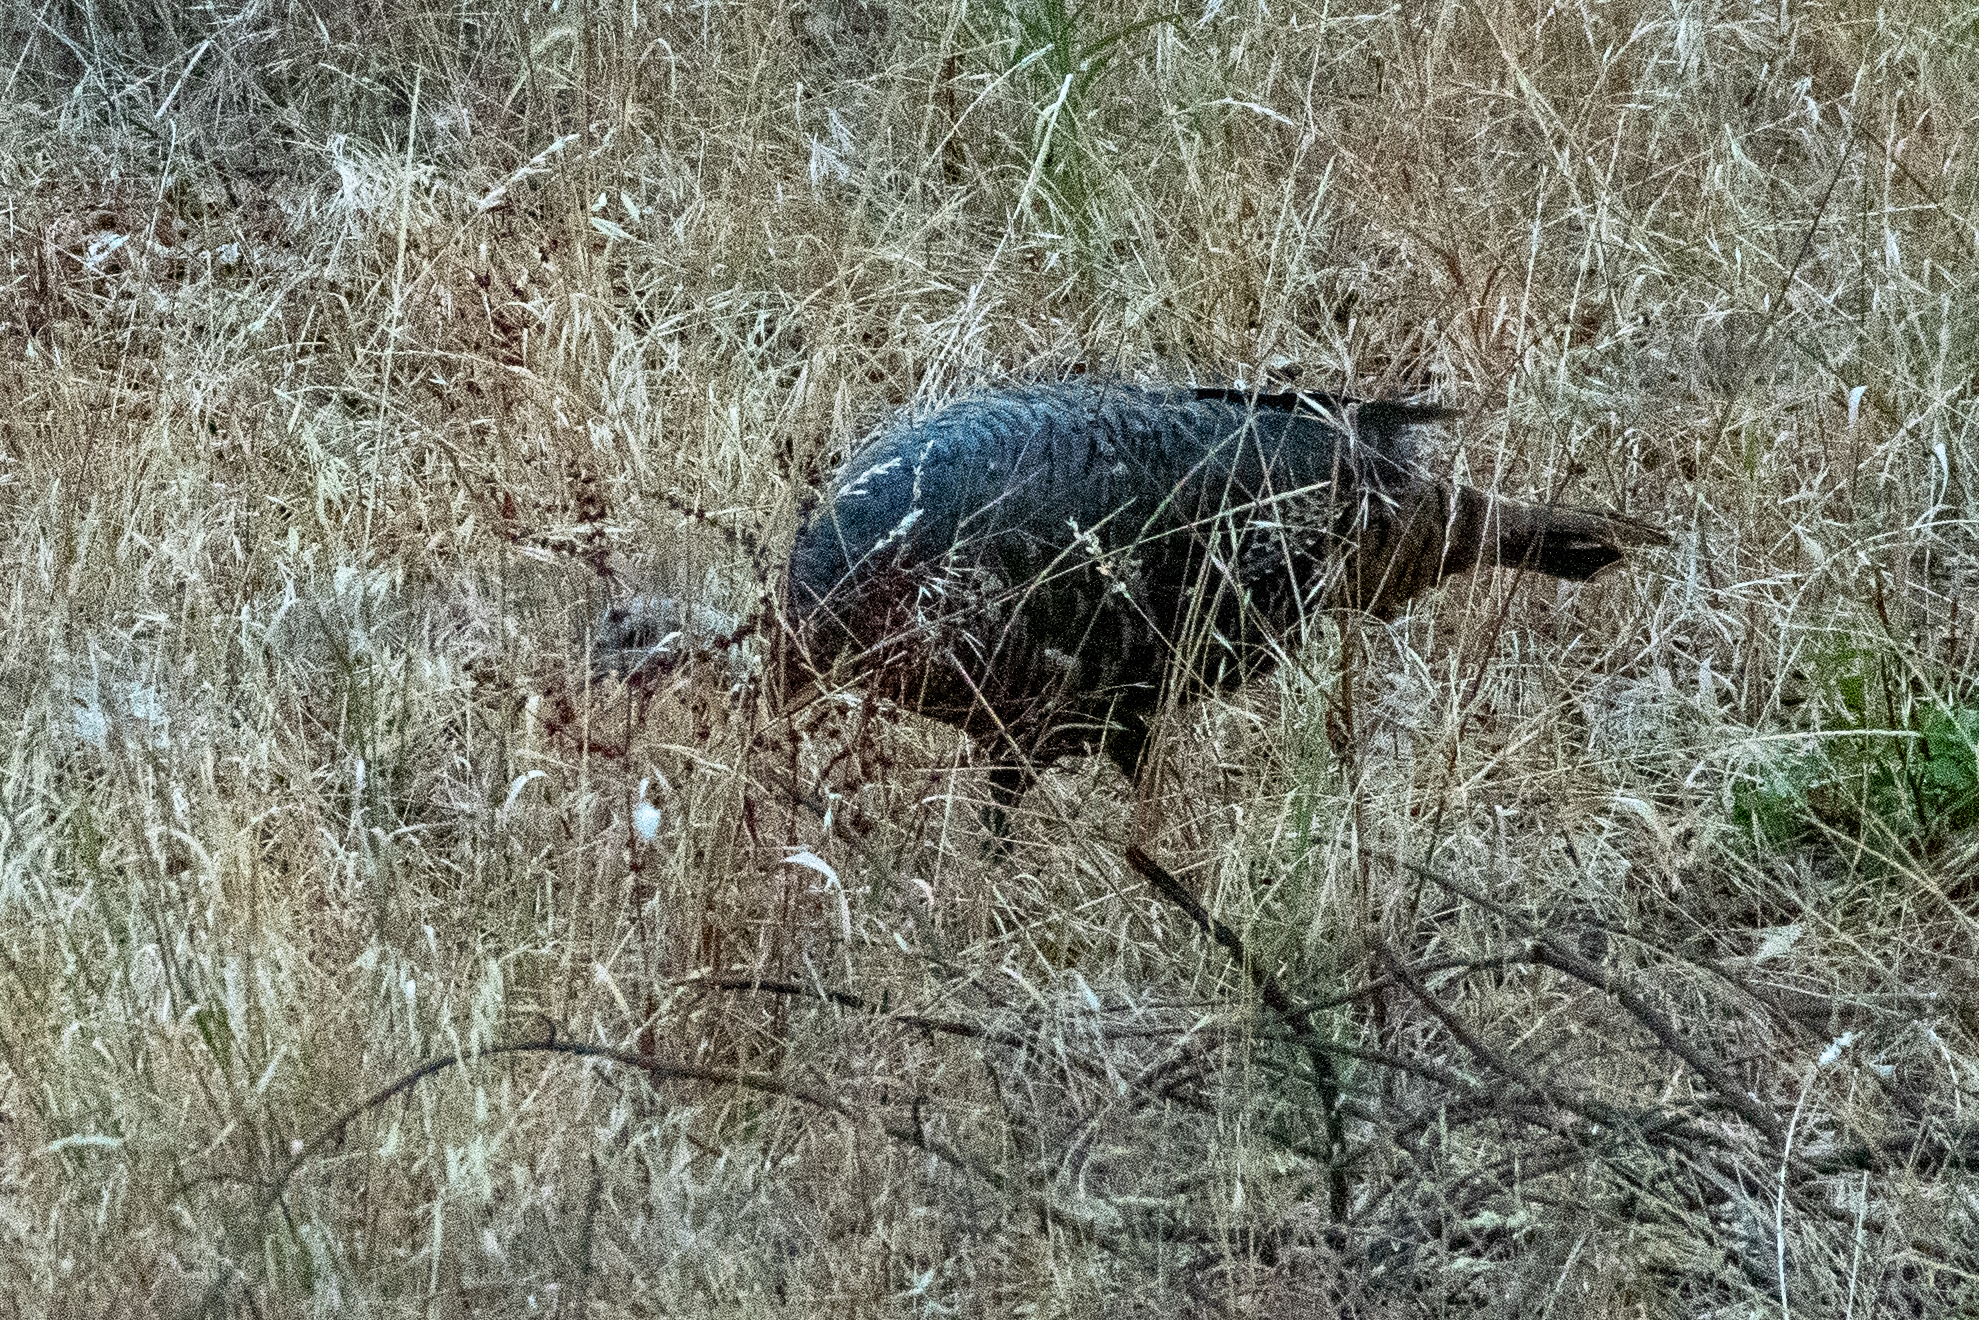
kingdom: Animalia
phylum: Chordata
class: Aves
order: Galliformes
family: Phasianidae
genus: Meleagris
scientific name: Meleagris gallopavo
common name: Wild turkey
